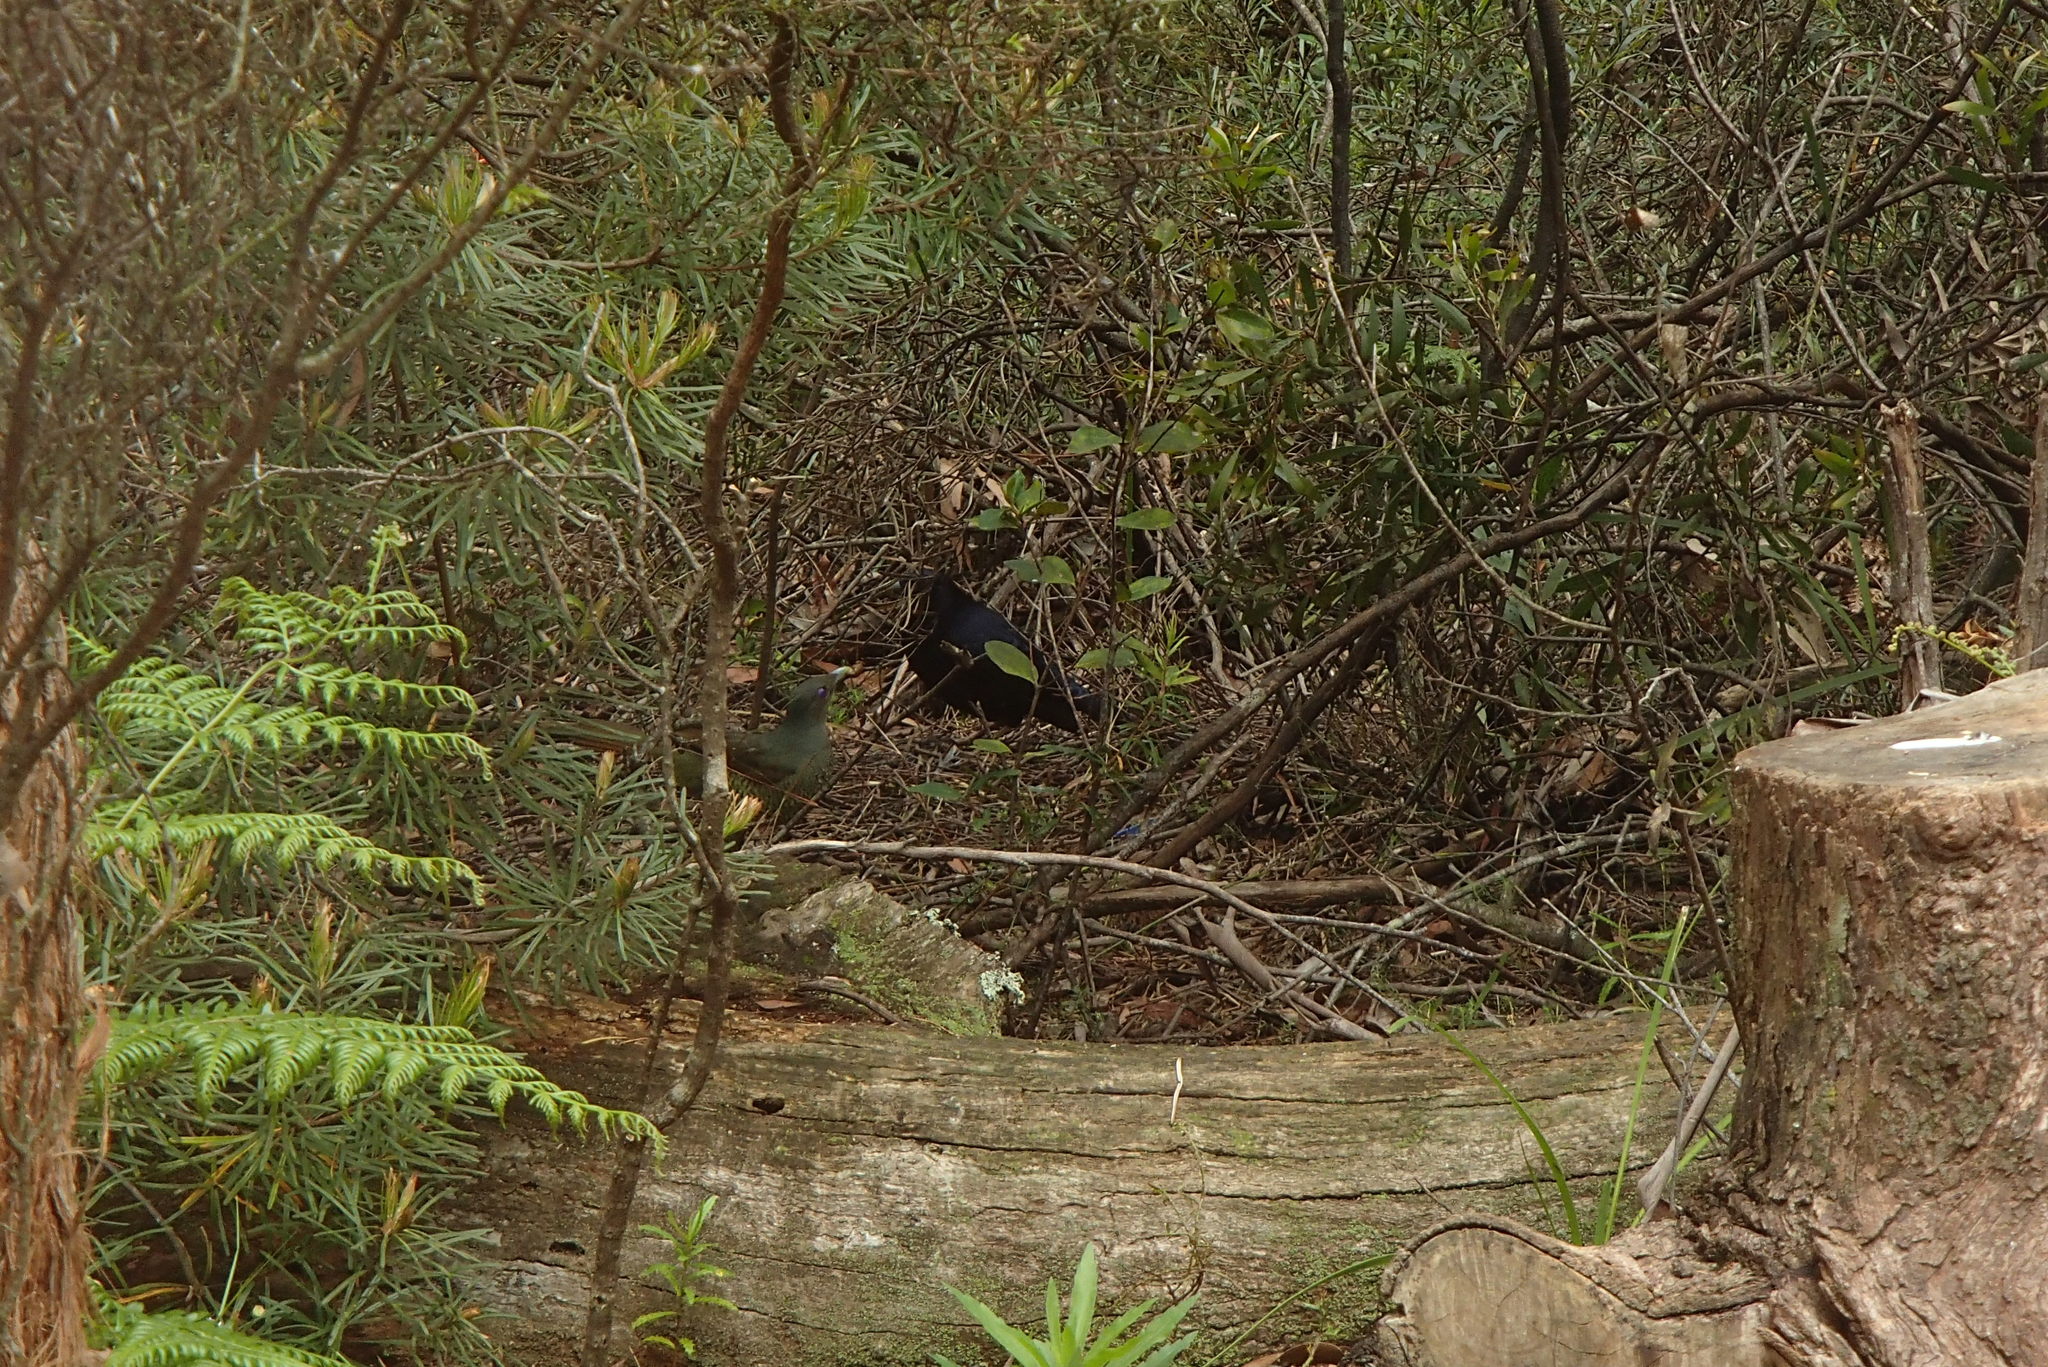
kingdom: Animalia
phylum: Chordata
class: Aves
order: Passeriformes
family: Ptilonorhynchidae
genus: Ptilonorhynchus
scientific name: Ptilonorhynchus violaceus
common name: Satin bowerbird
